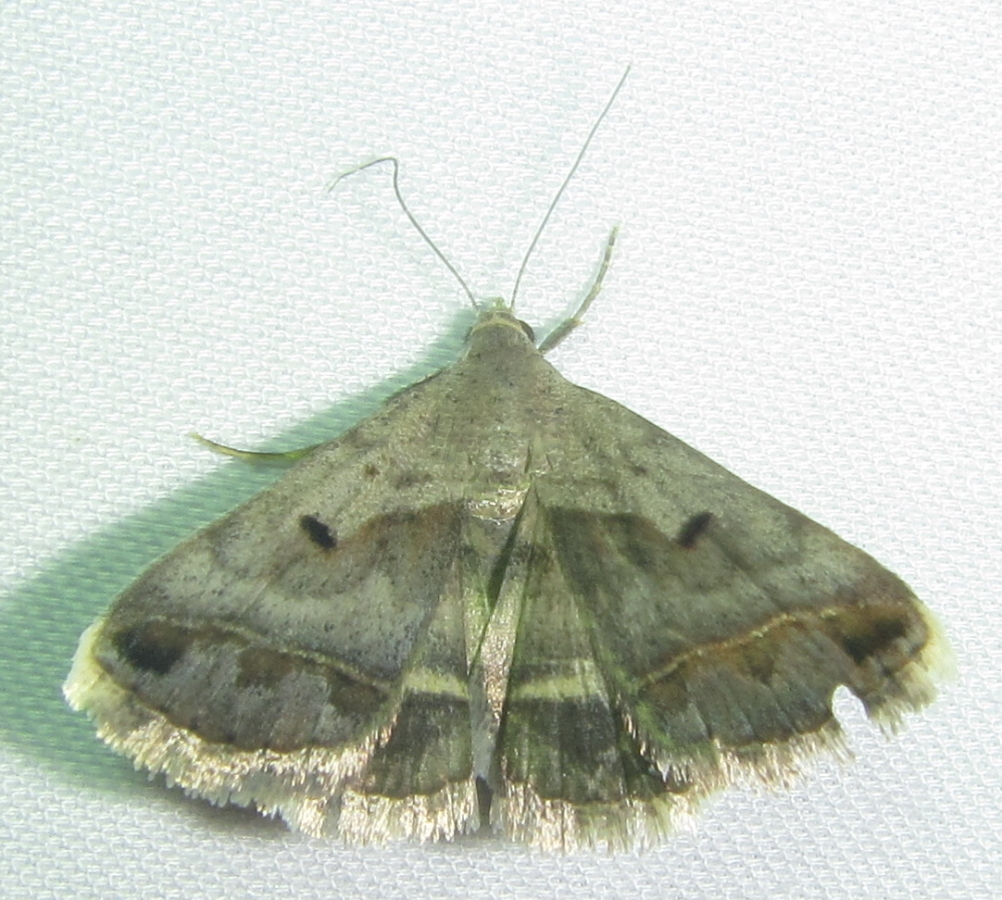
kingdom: Animalia
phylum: Arthropoda
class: Insecta
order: Lepidoptera
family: Erebidae
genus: Acantholipes
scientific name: Acantholipes trimeni
